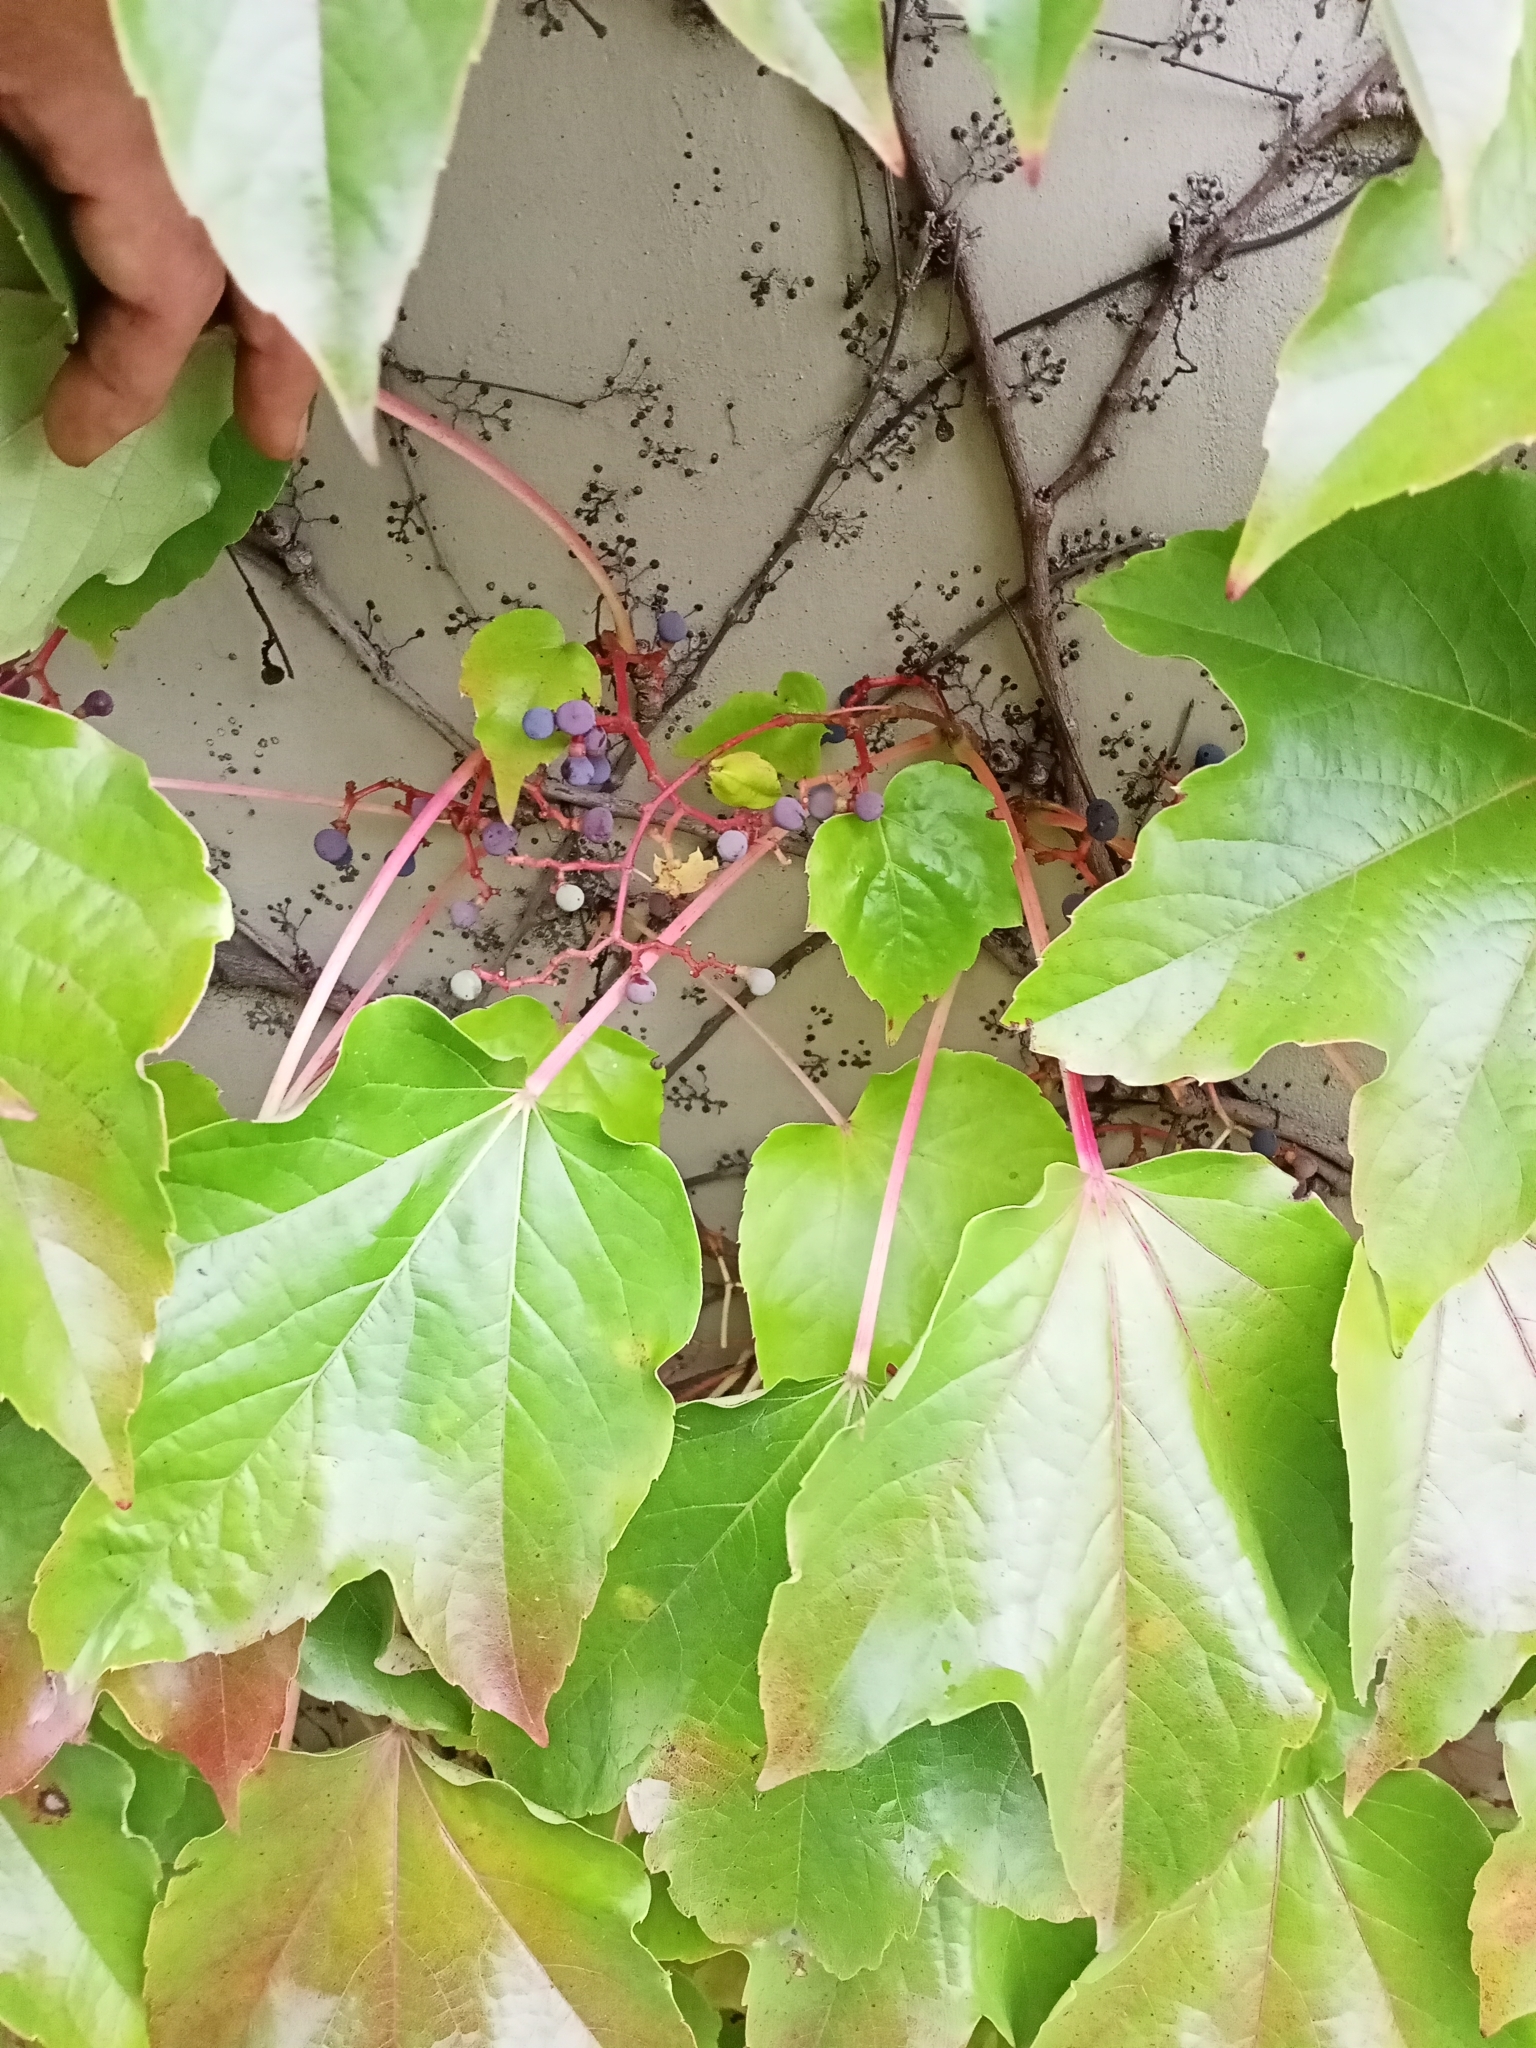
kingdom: Plantae
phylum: Tracheophyta
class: Magnoliopsida
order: Vitales
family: Vitaceae
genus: Parthenocissus
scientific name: Parthenocissus tricuspidata
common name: Boston ivy
